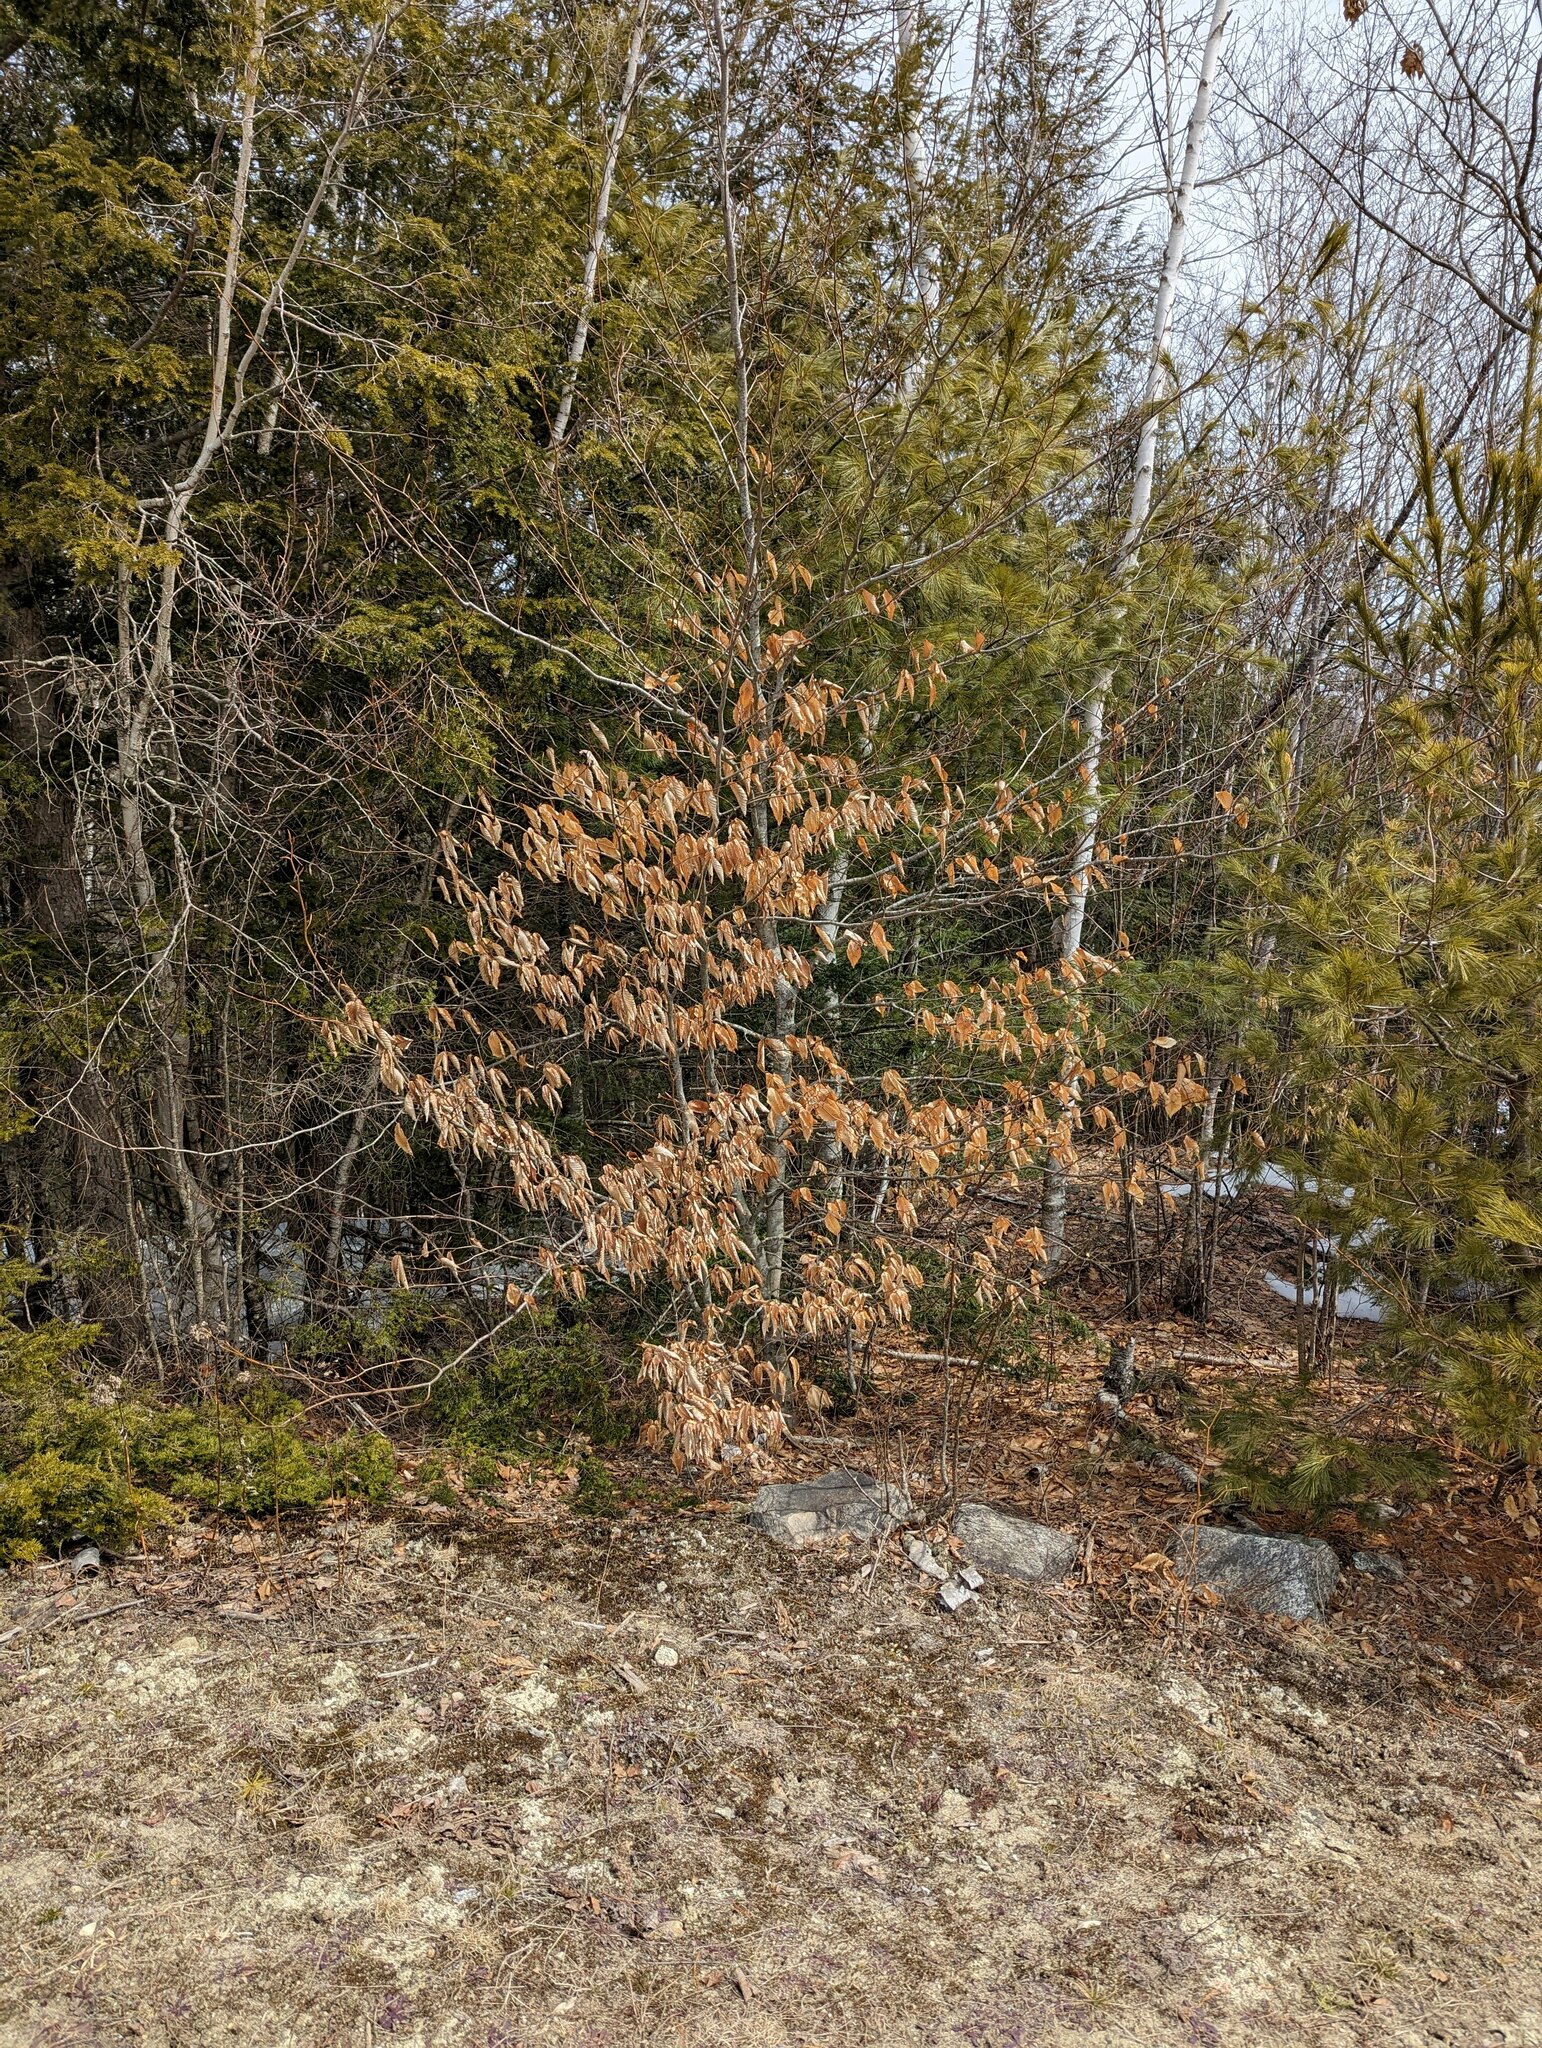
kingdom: Plantae
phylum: Tracheophyta
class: Magnoliopsida
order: Fagales
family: Fagaceae
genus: Fagus
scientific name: Fagus grandifolia
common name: American beech
